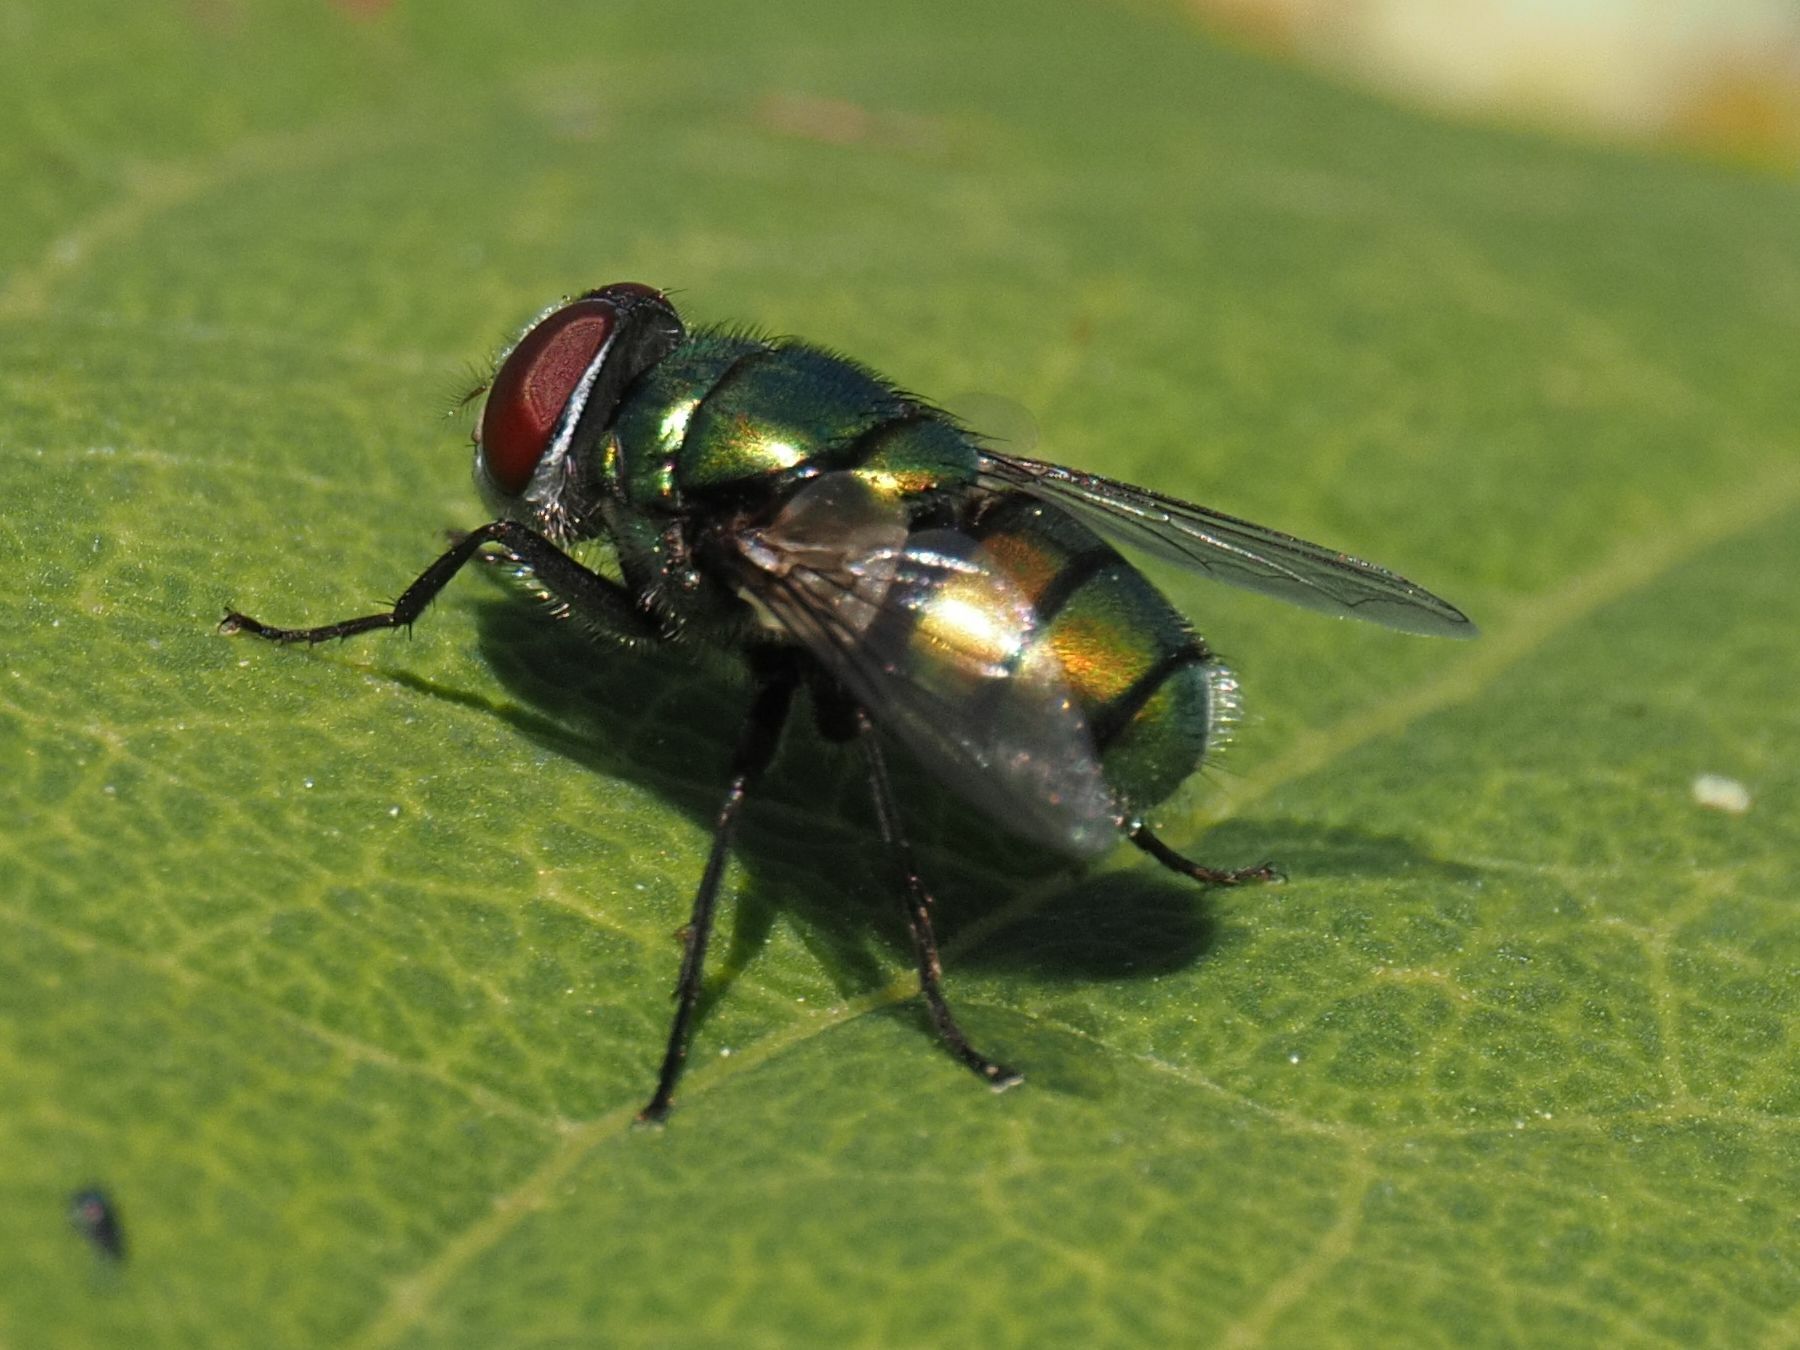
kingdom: Animalia
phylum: Arthropoda
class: Insecta
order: Diptera
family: Calliphoridae
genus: Chrysomya
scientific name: Chrysomya albiceps
